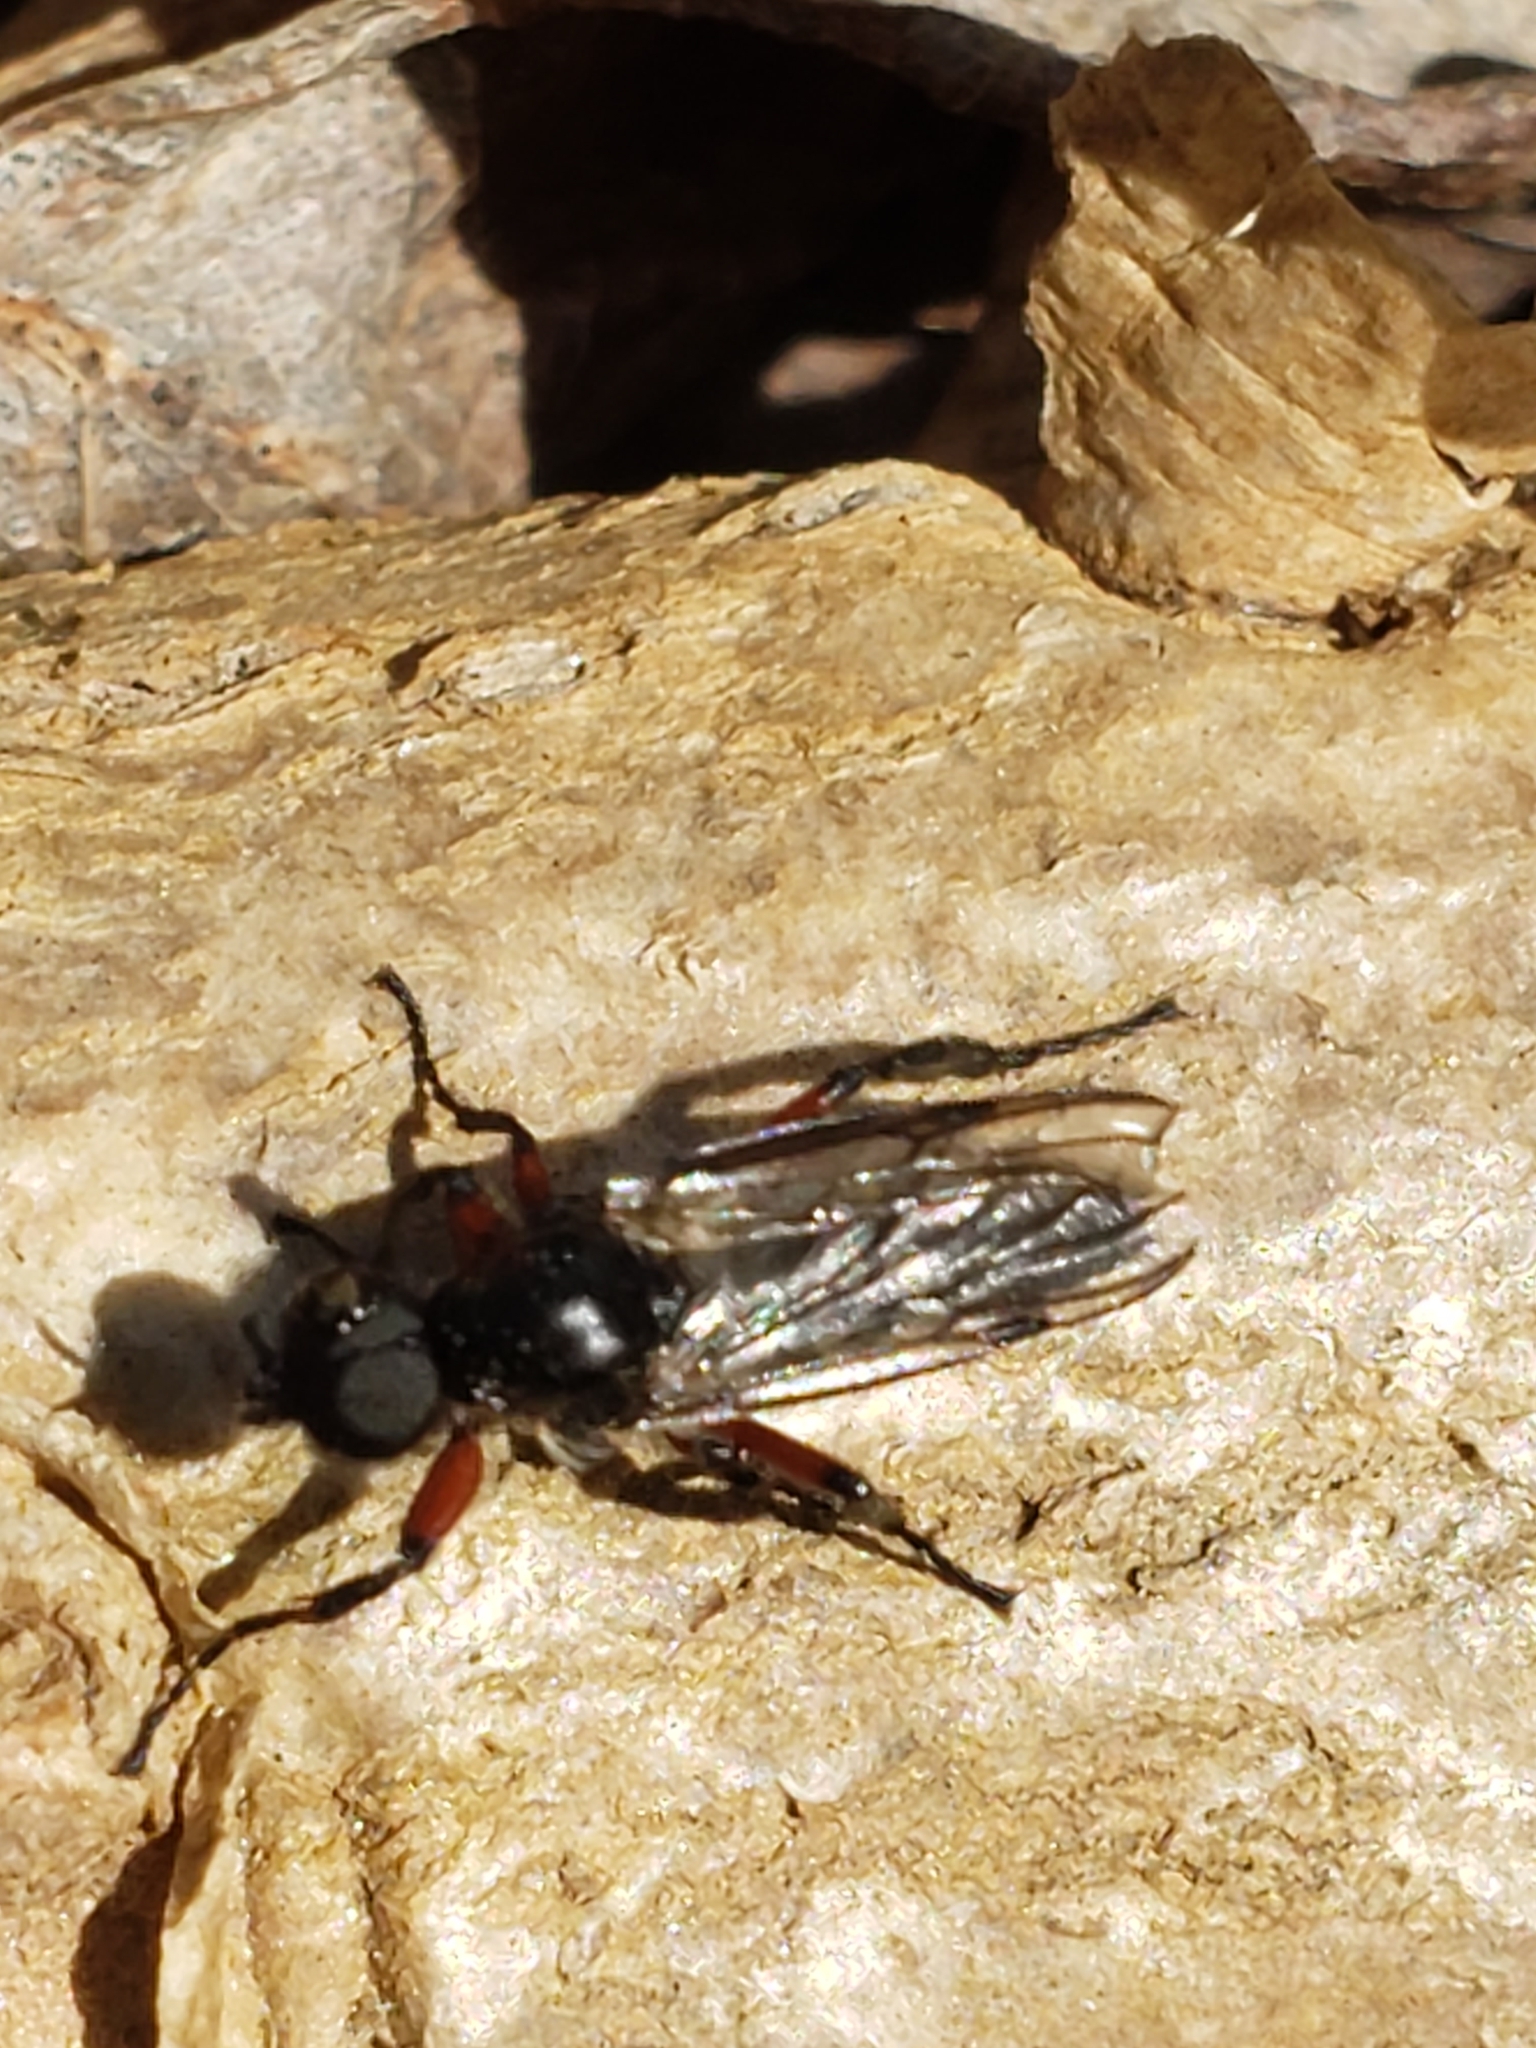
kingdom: Animalia
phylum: Arthropoda
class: Insecta
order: Diptera
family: Bibionidae
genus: Bibio
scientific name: Bibio femoratus
